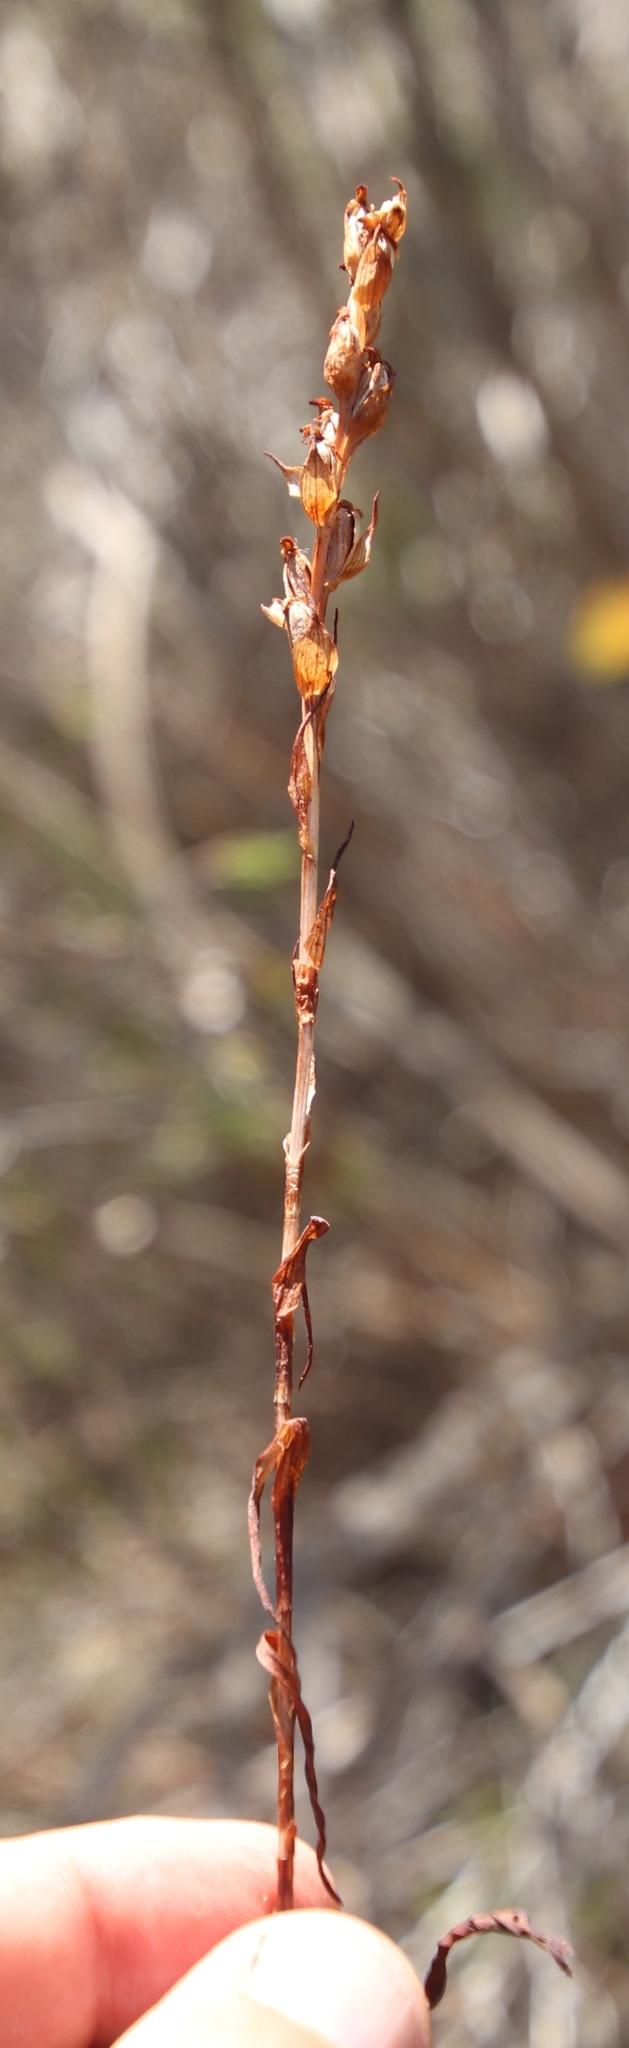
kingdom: Plantae
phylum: Tracheophyta
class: Liliopsida
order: Asparagales
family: Orchidaceae
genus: Disa
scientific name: Disa bracteata
